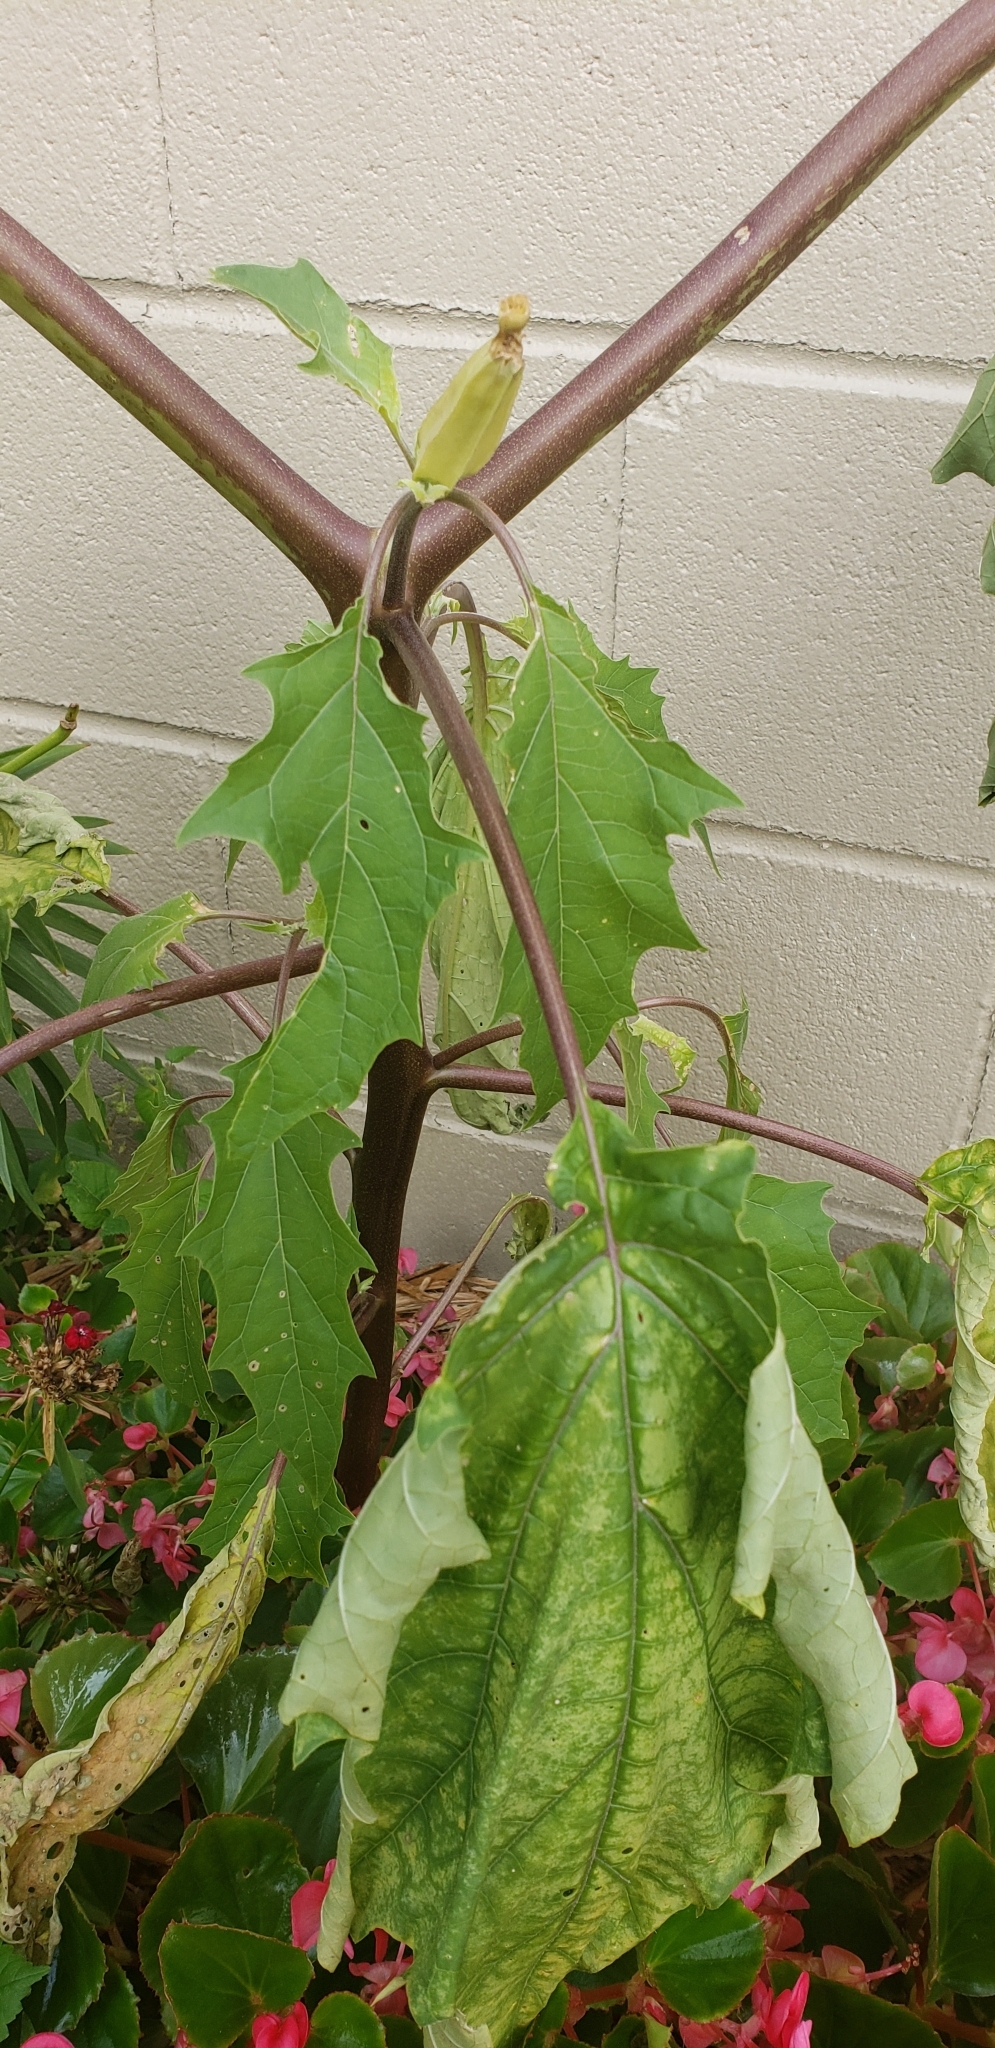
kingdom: Plantae
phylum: Tracheophyta
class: Magnoliopsida
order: Solanales
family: Solanaceae
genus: Datura
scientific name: Datura stramonium
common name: Thorn-apple
